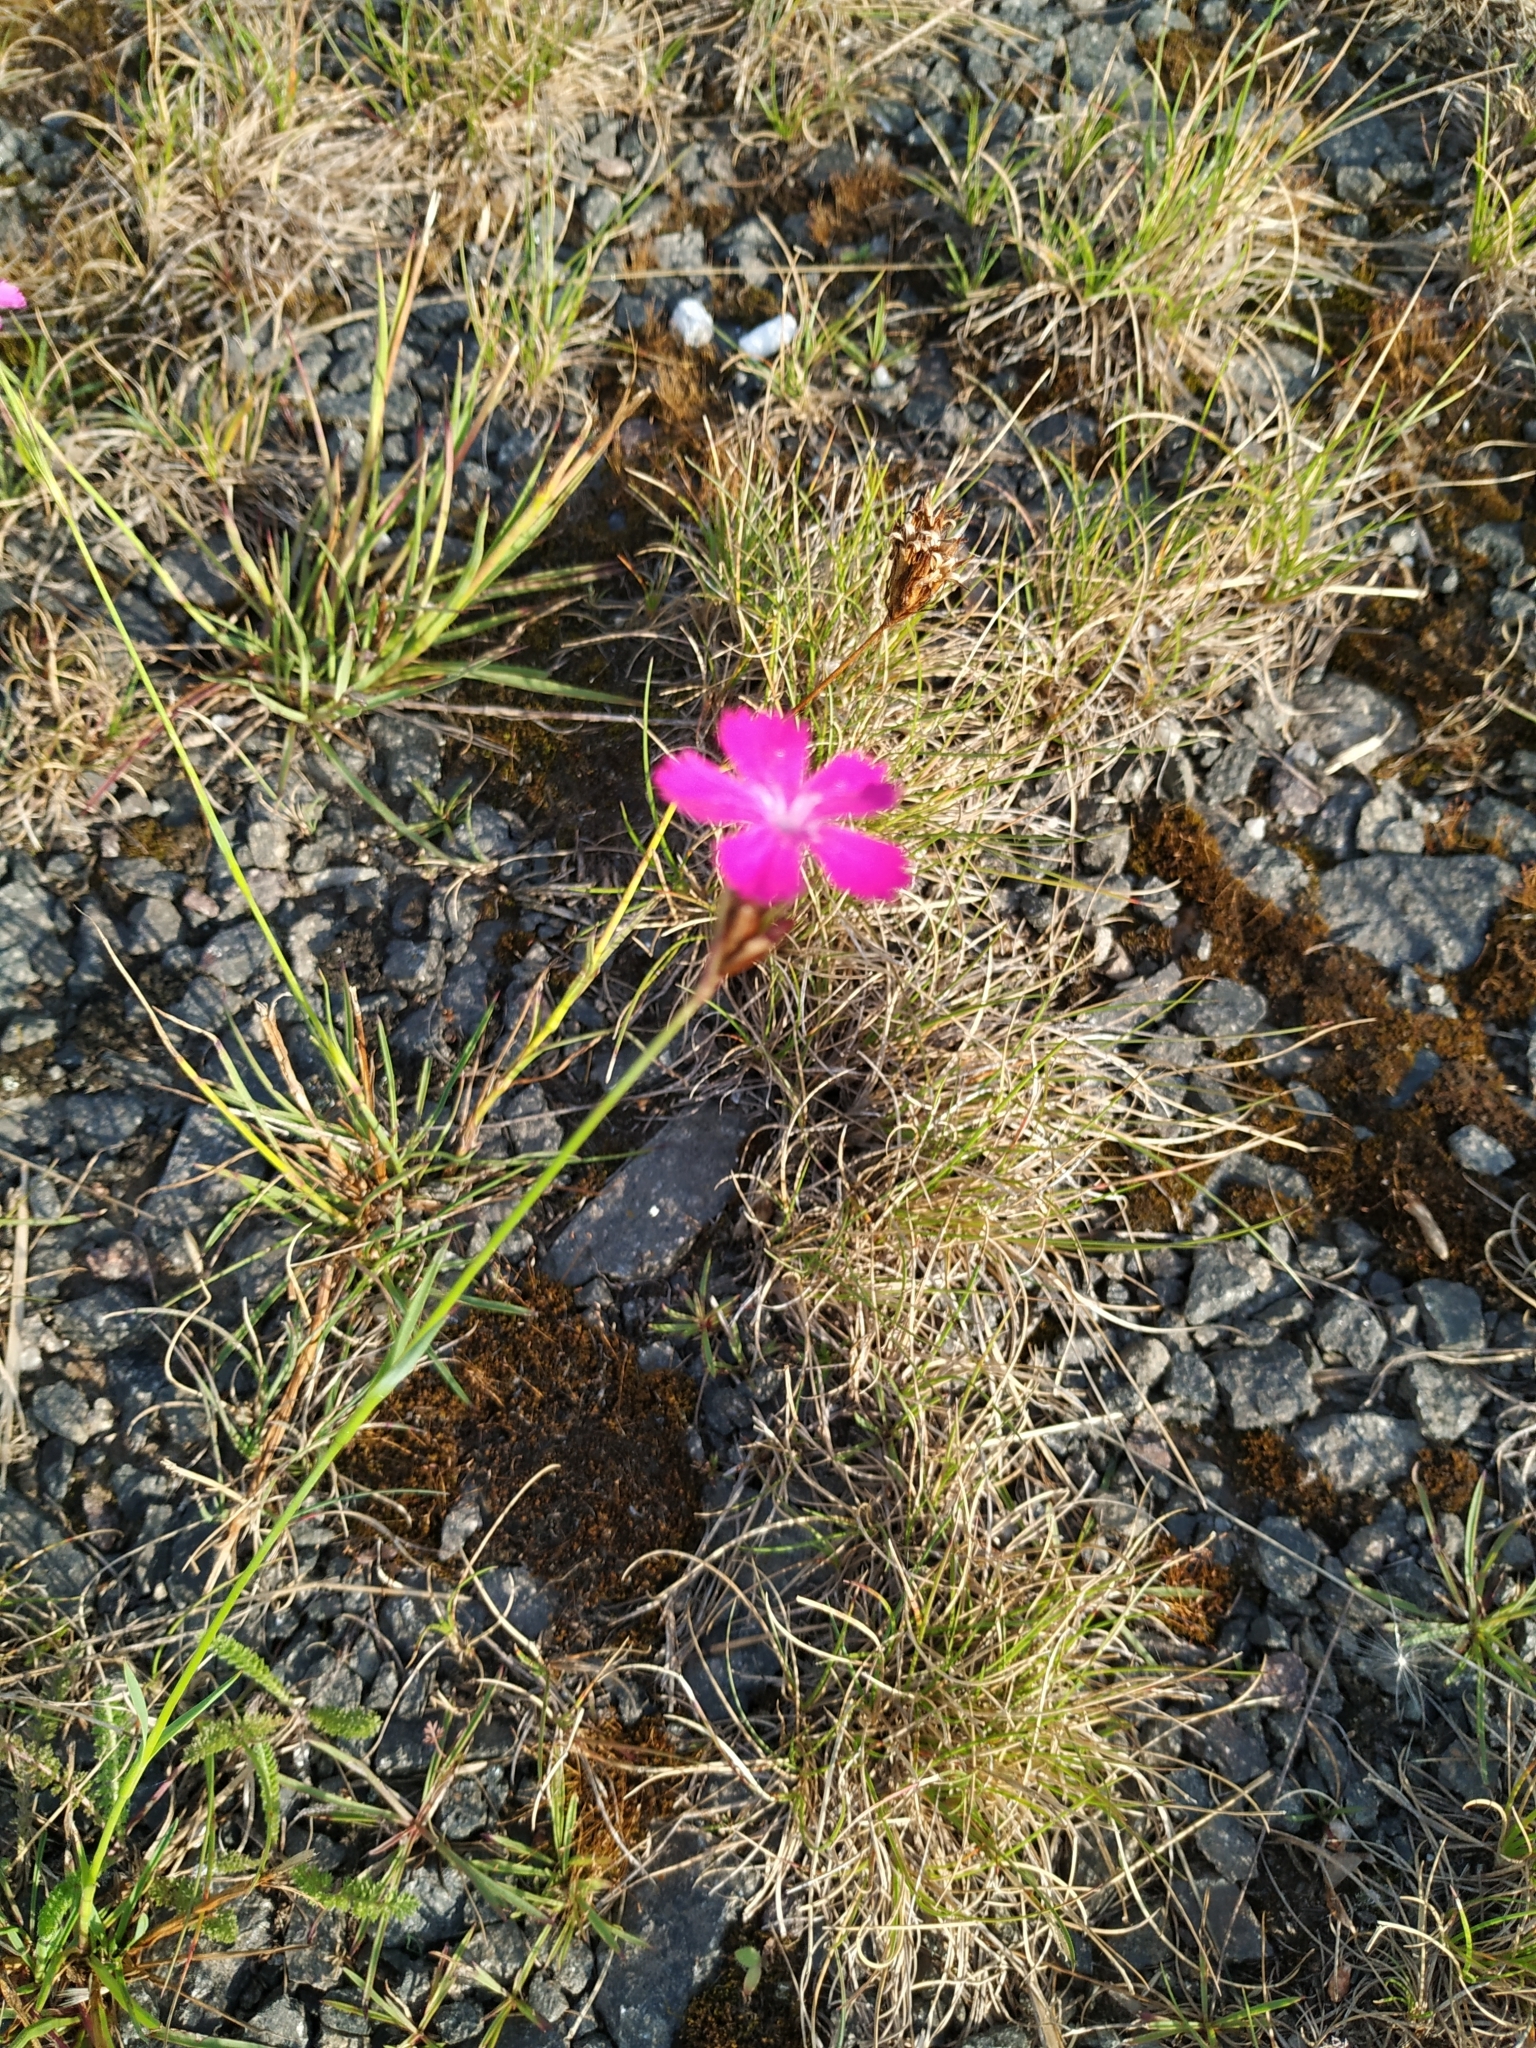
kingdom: Plantae
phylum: Tracheophyta
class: Magnoliopsida
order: Caryophyllales
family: Caryophyllaceae
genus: Dianthus
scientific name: Dianthus carthusianorum
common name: Carthusian pink
